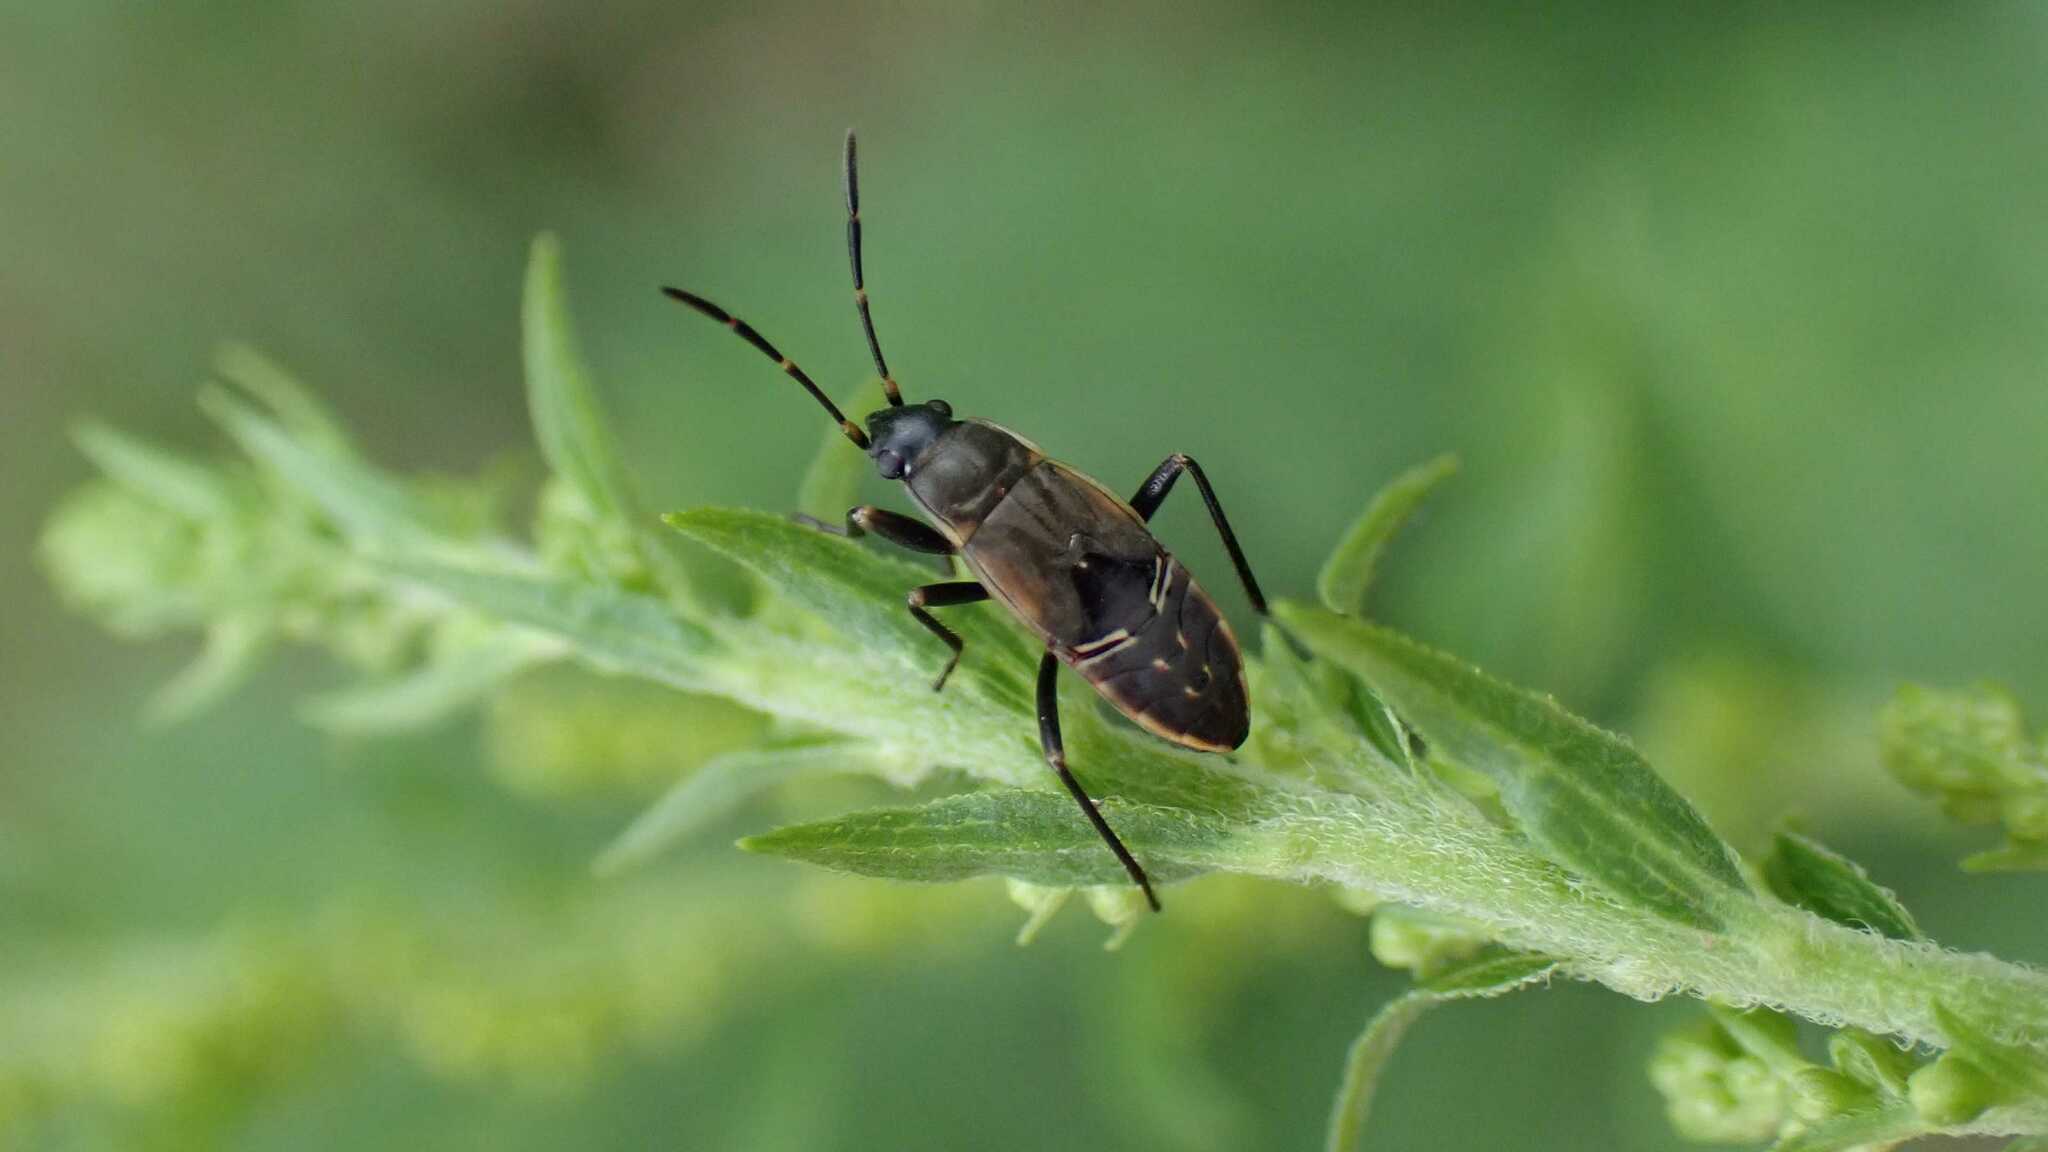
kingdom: Animalia
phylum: Arthropoda
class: Insecta
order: Hemiptera
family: Rhyparochromidae
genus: Rhyparochromus
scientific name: Rhyparochromus vulgaris
